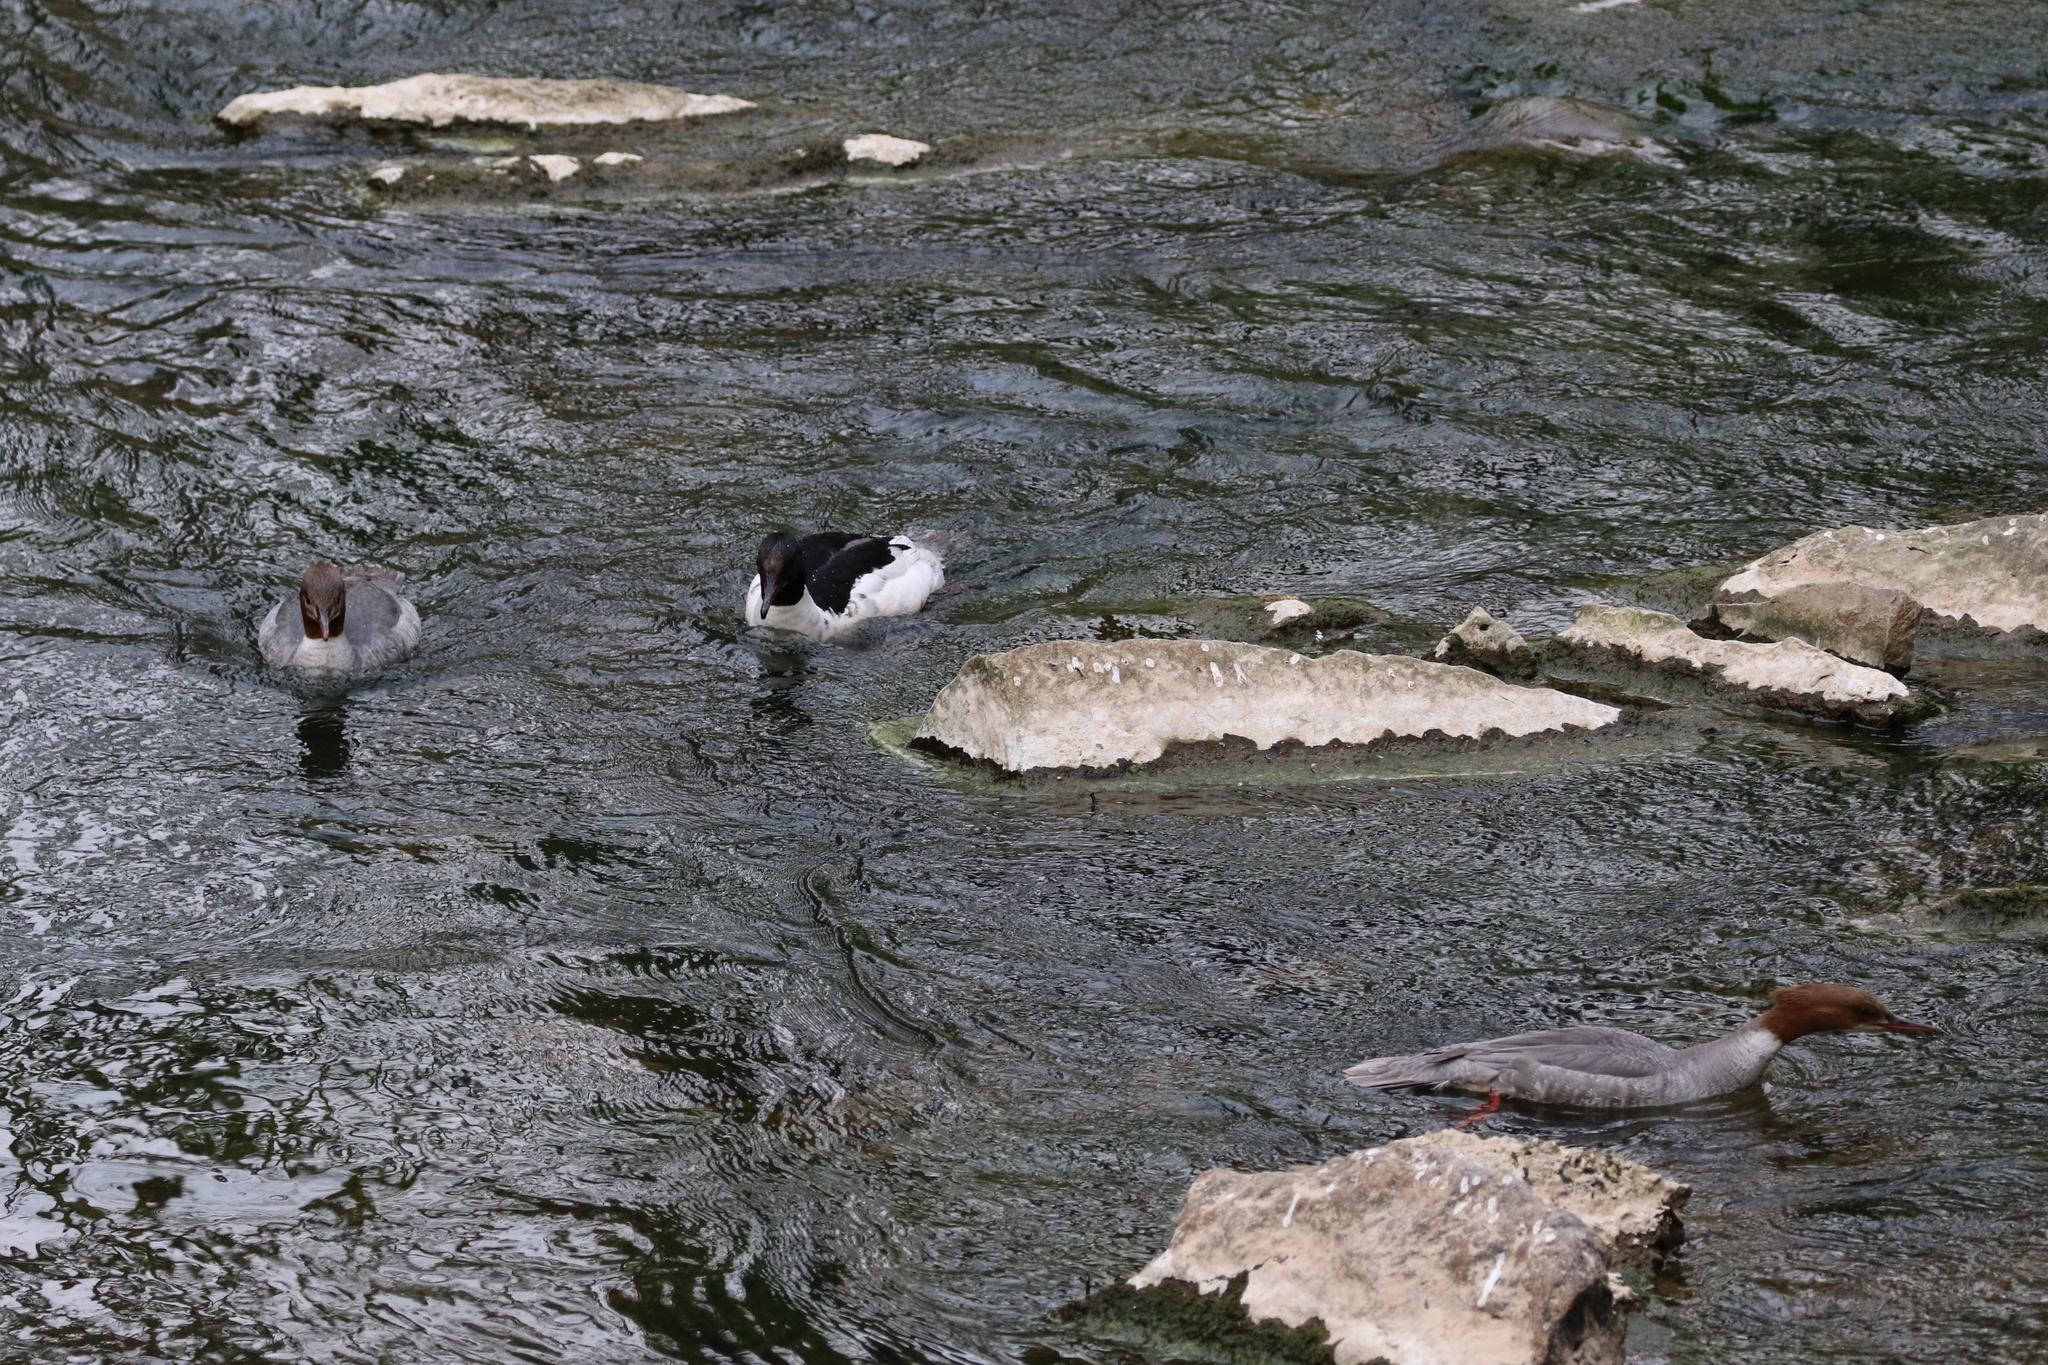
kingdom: Animalia
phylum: Chordata
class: Aves
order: Anseriformes
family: Anatidae
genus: Mergus
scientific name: Mergus merganser
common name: Common merganser
